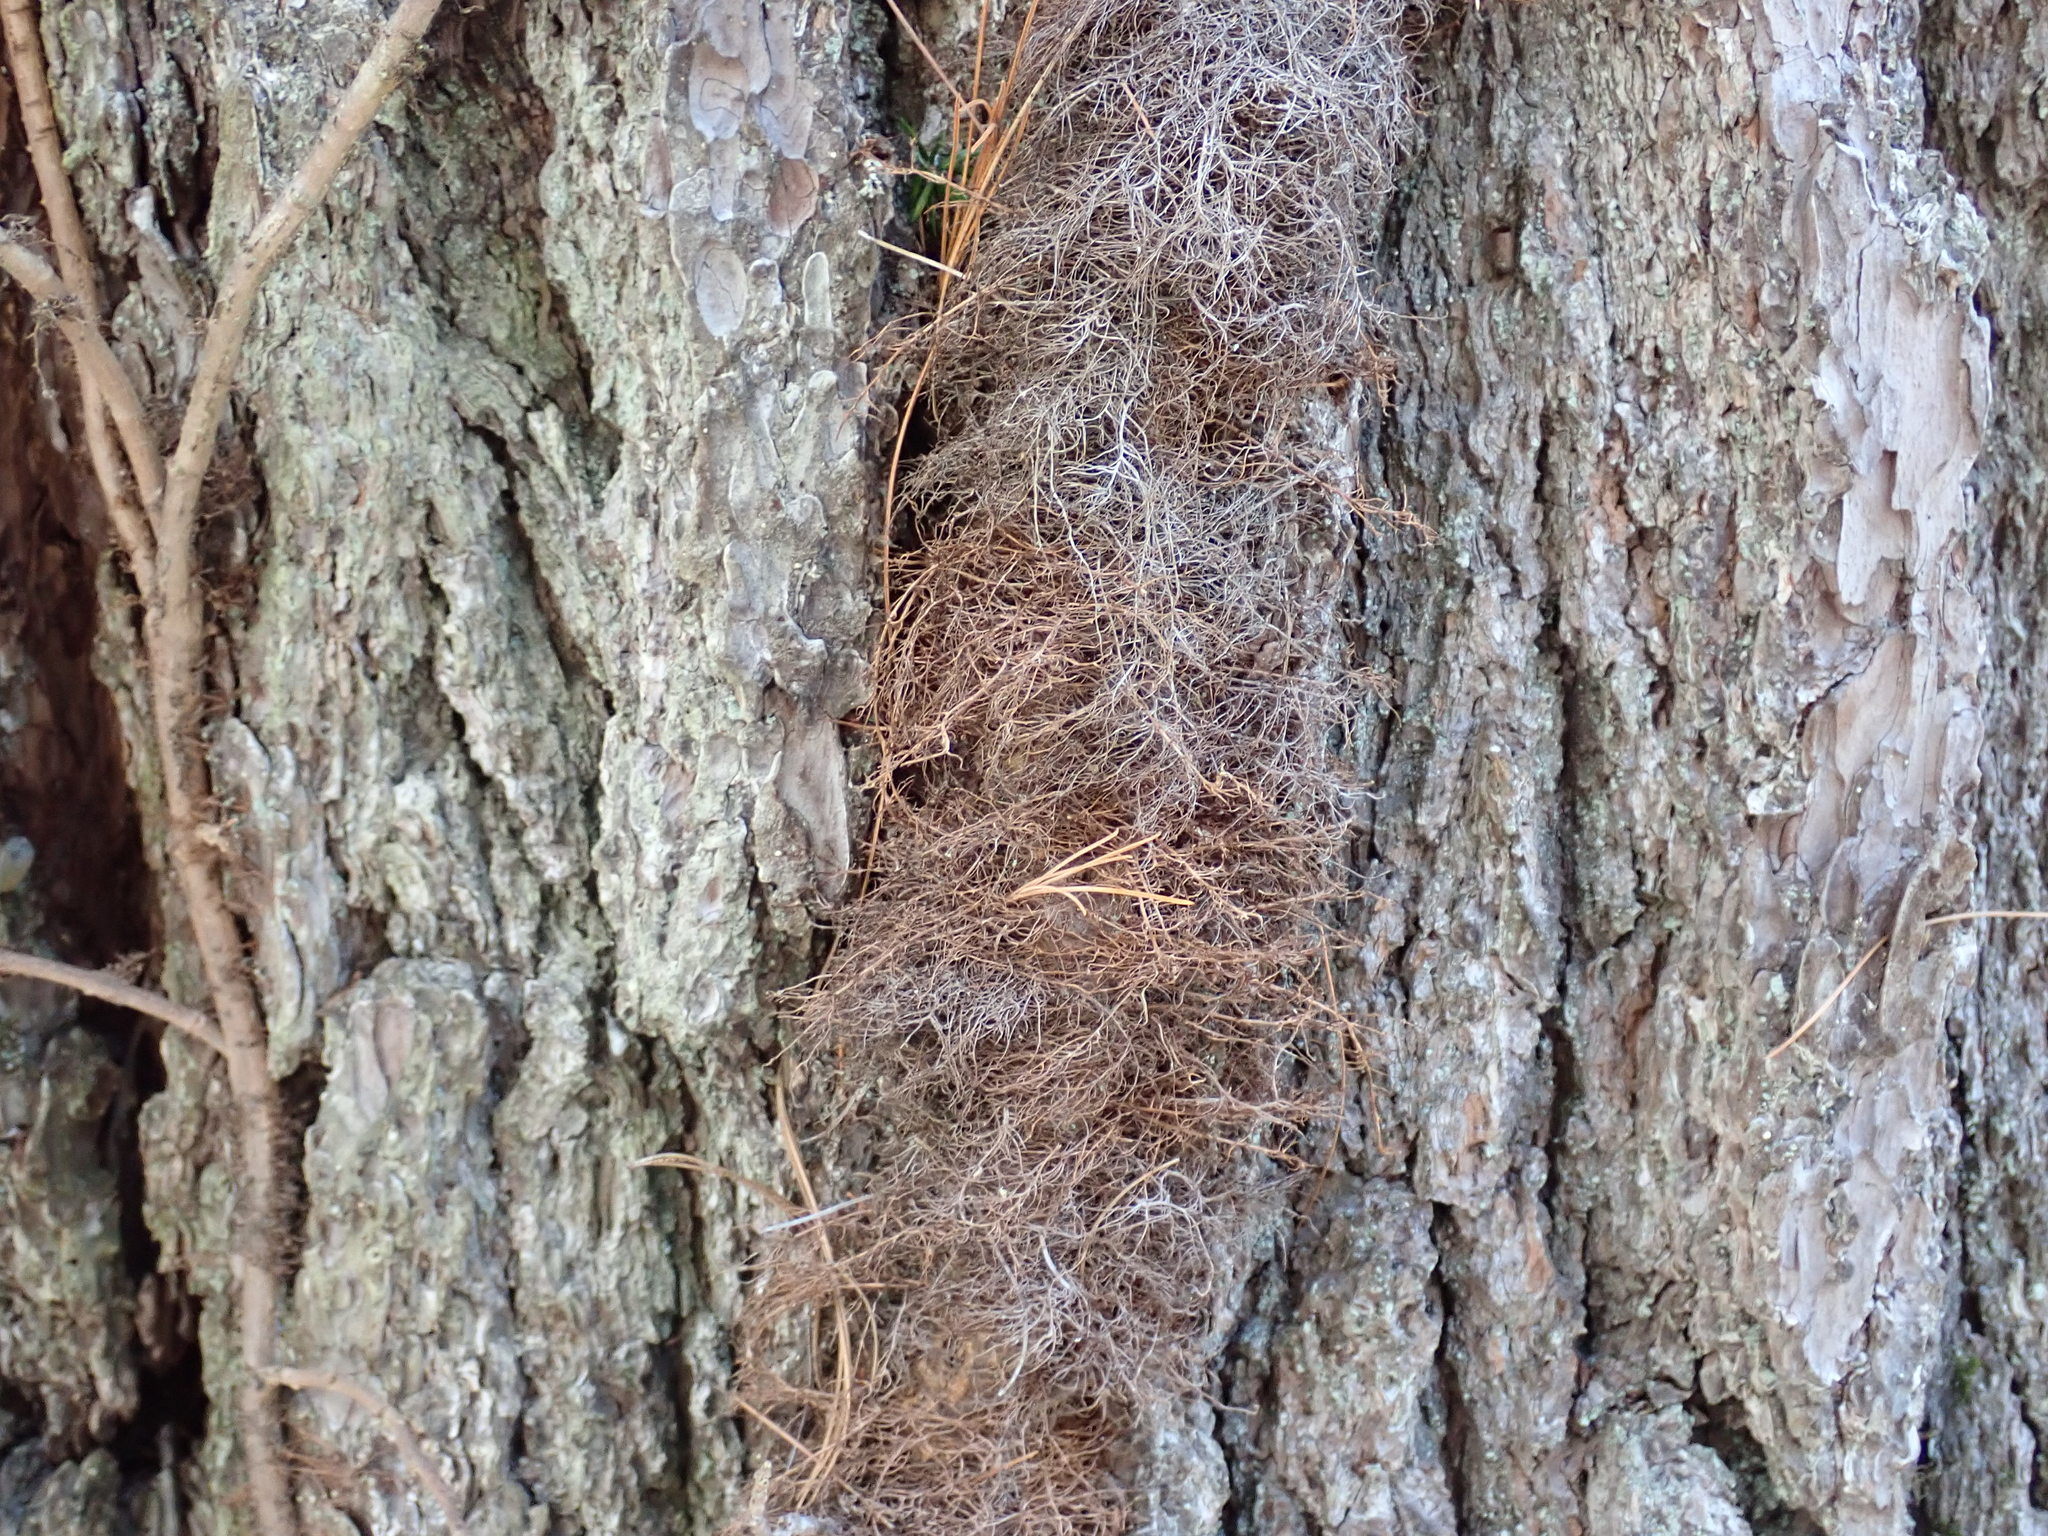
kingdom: Plantae
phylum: Tracheophyta
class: Magnoliopsida
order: Sapindales
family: Anacardiaceae
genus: Toxicodendron
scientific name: Toxicodendron radicans
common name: Poison ivy
